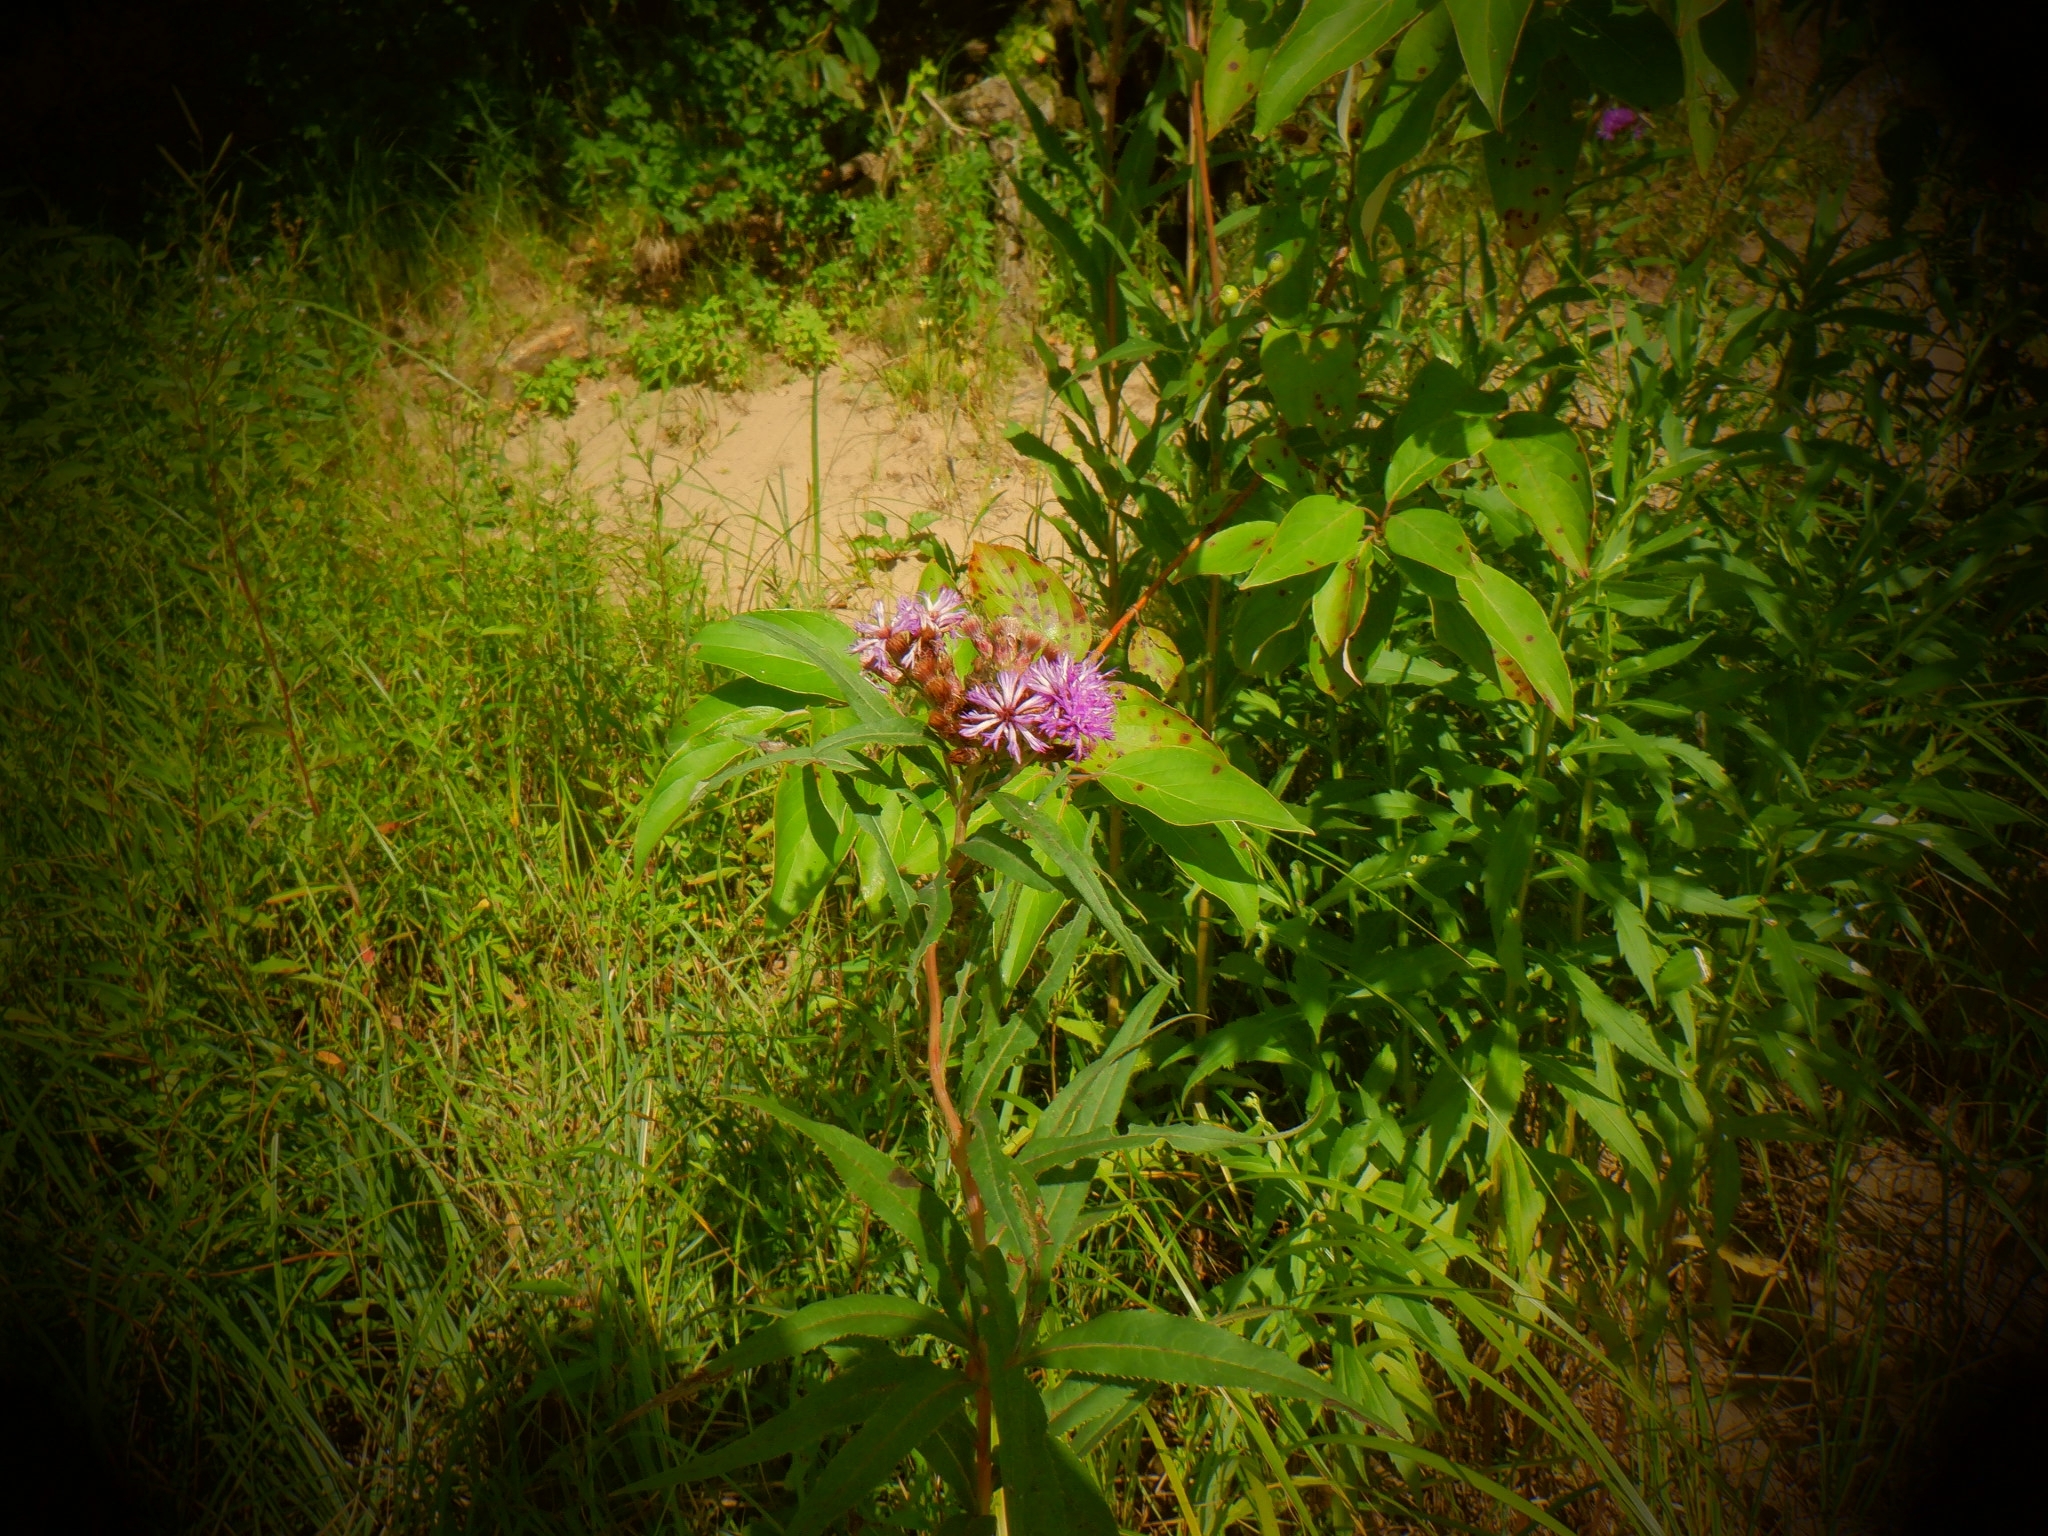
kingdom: Plantae
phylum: Tracheophyta
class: Magnoliopsida
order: Asterales
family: Asteraceae
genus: Vernonia
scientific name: Vernonia fasciculata
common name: Fascicled ironweed
